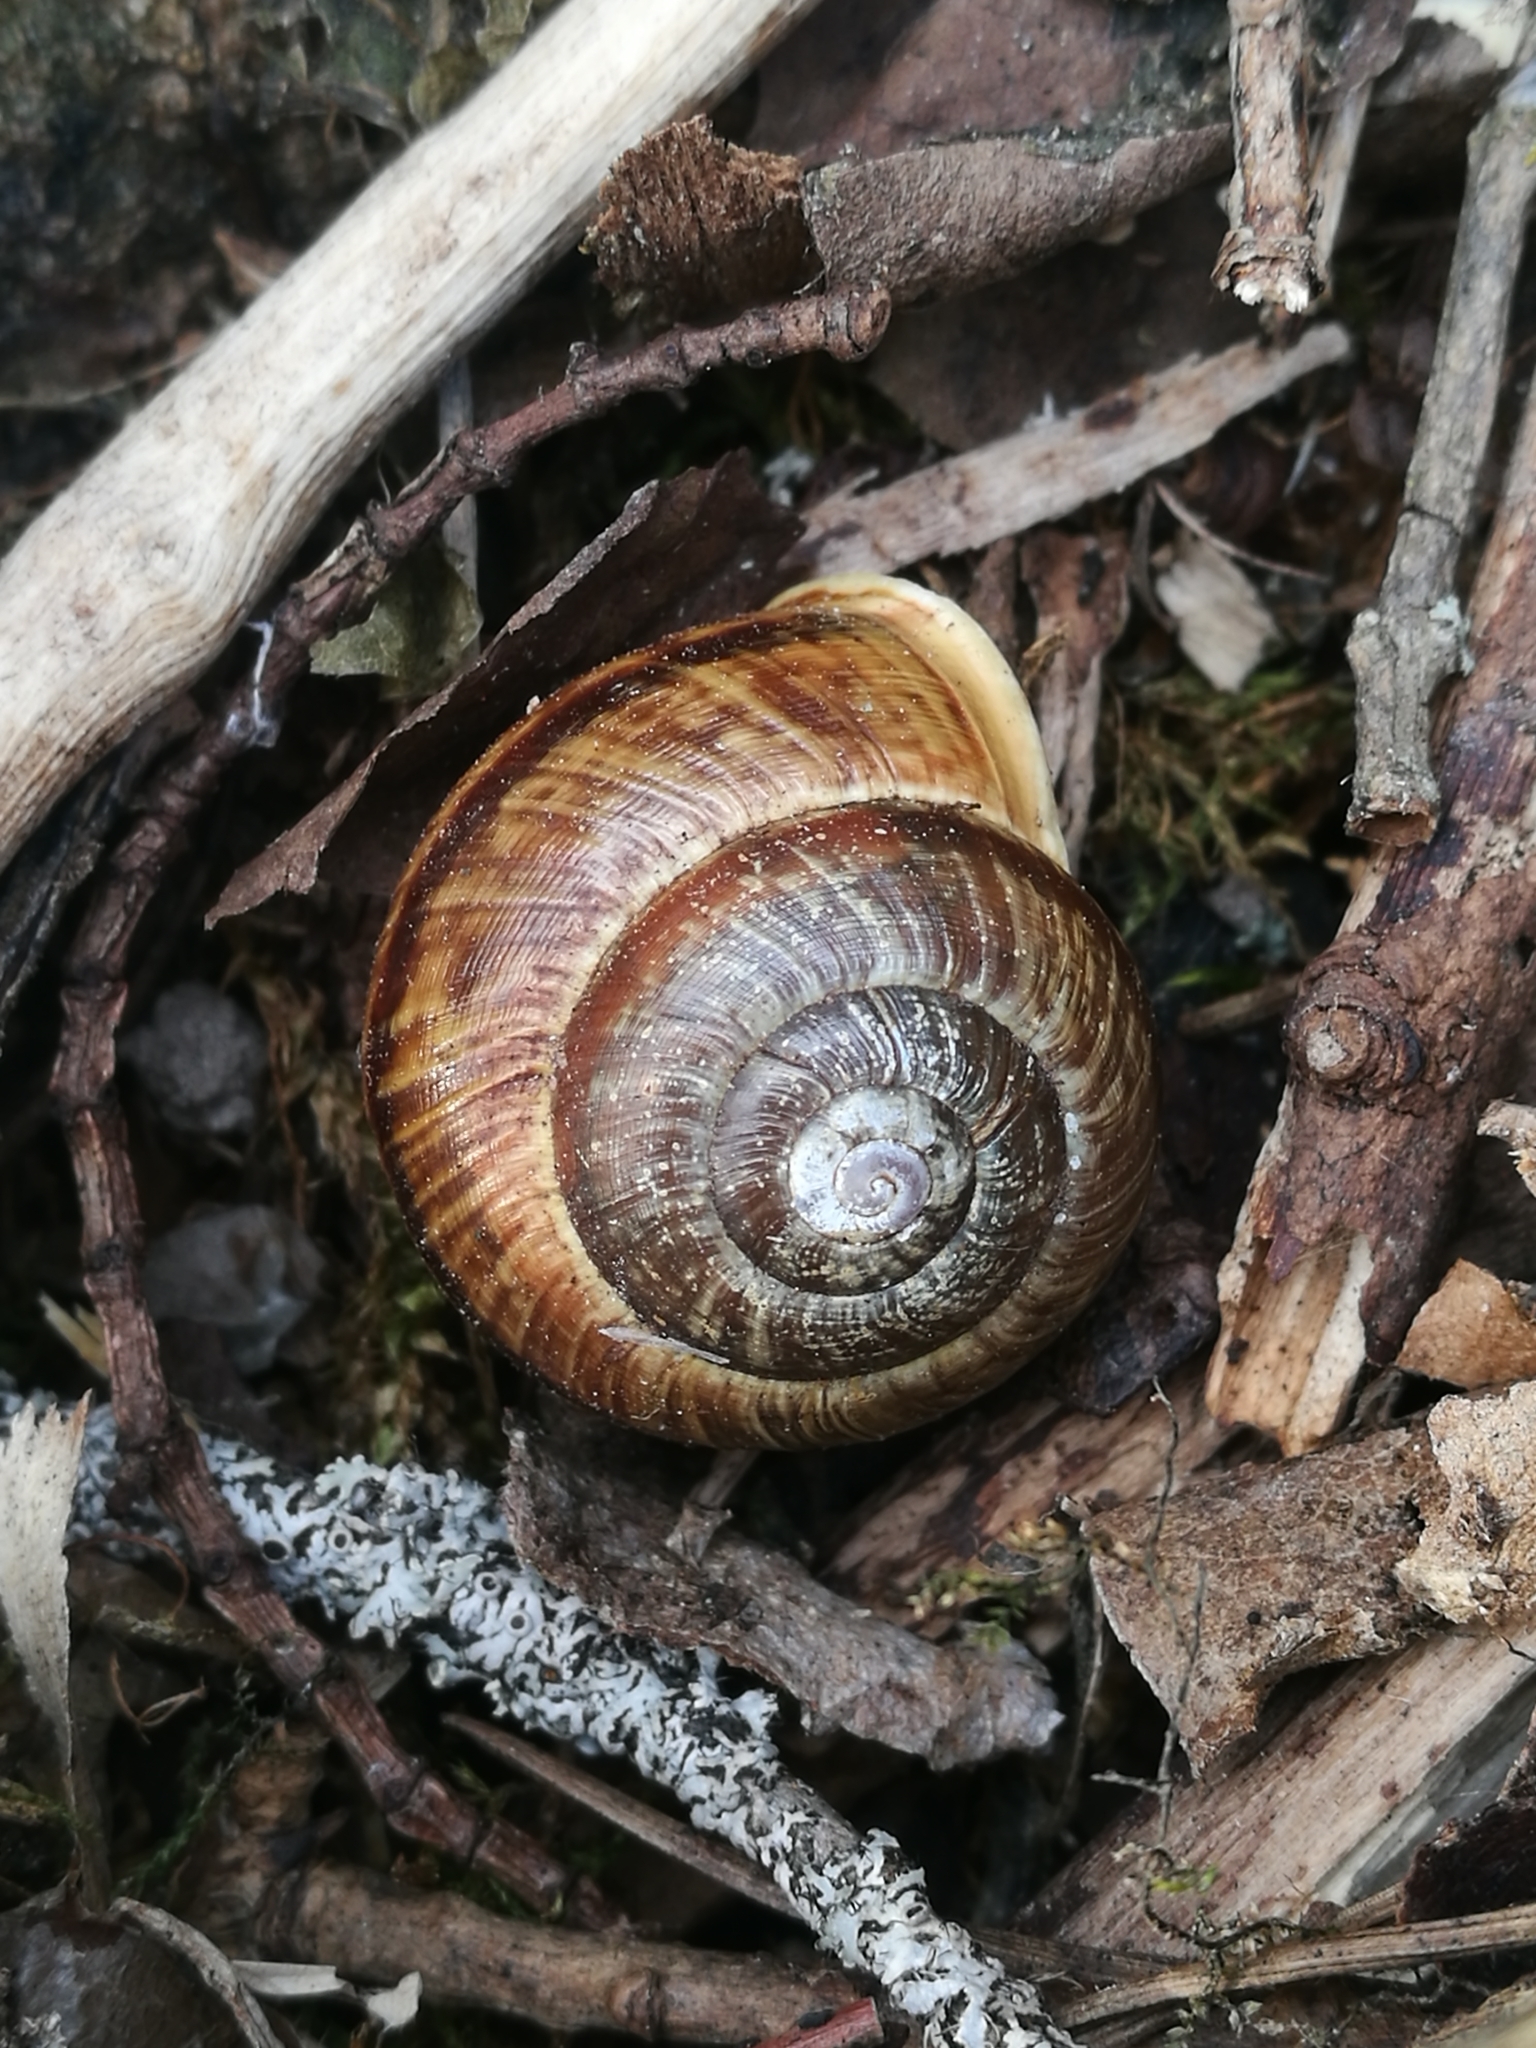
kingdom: Animalia
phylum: Mollusca
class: Gastropoda
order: Stylommatophora
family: Helicidae
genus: Arianta
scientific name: Arianta arbustorum
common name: Copse snail
